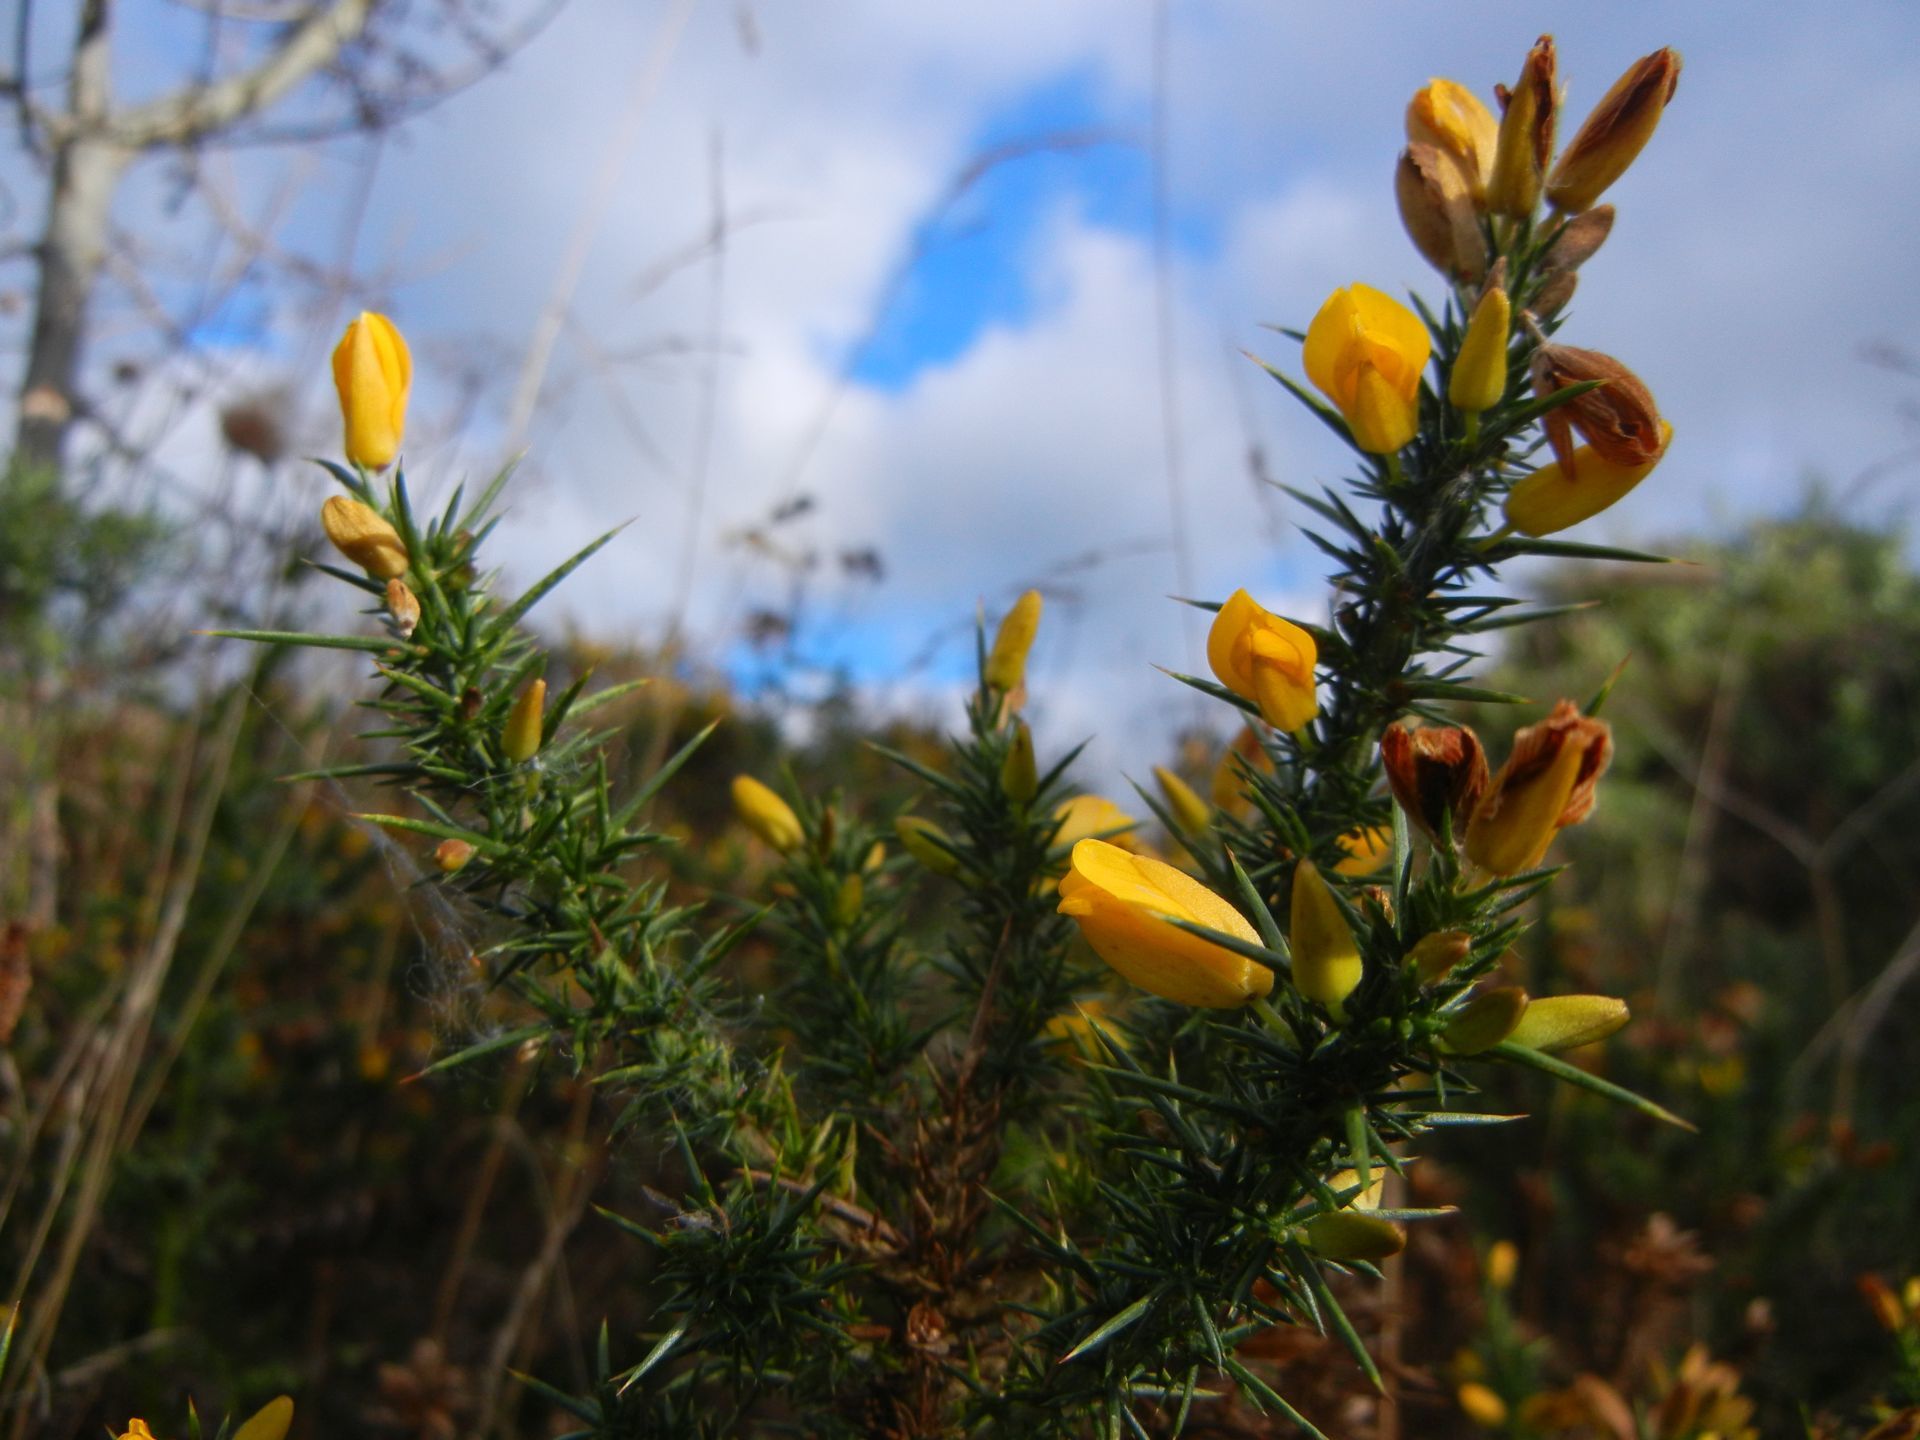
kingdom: Plantae
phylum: Tracheophyta
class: Magnoliopsida
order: Fabales
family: Fabaceae
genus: Ulex
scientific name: Ulex europaeus
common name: Common gorse
